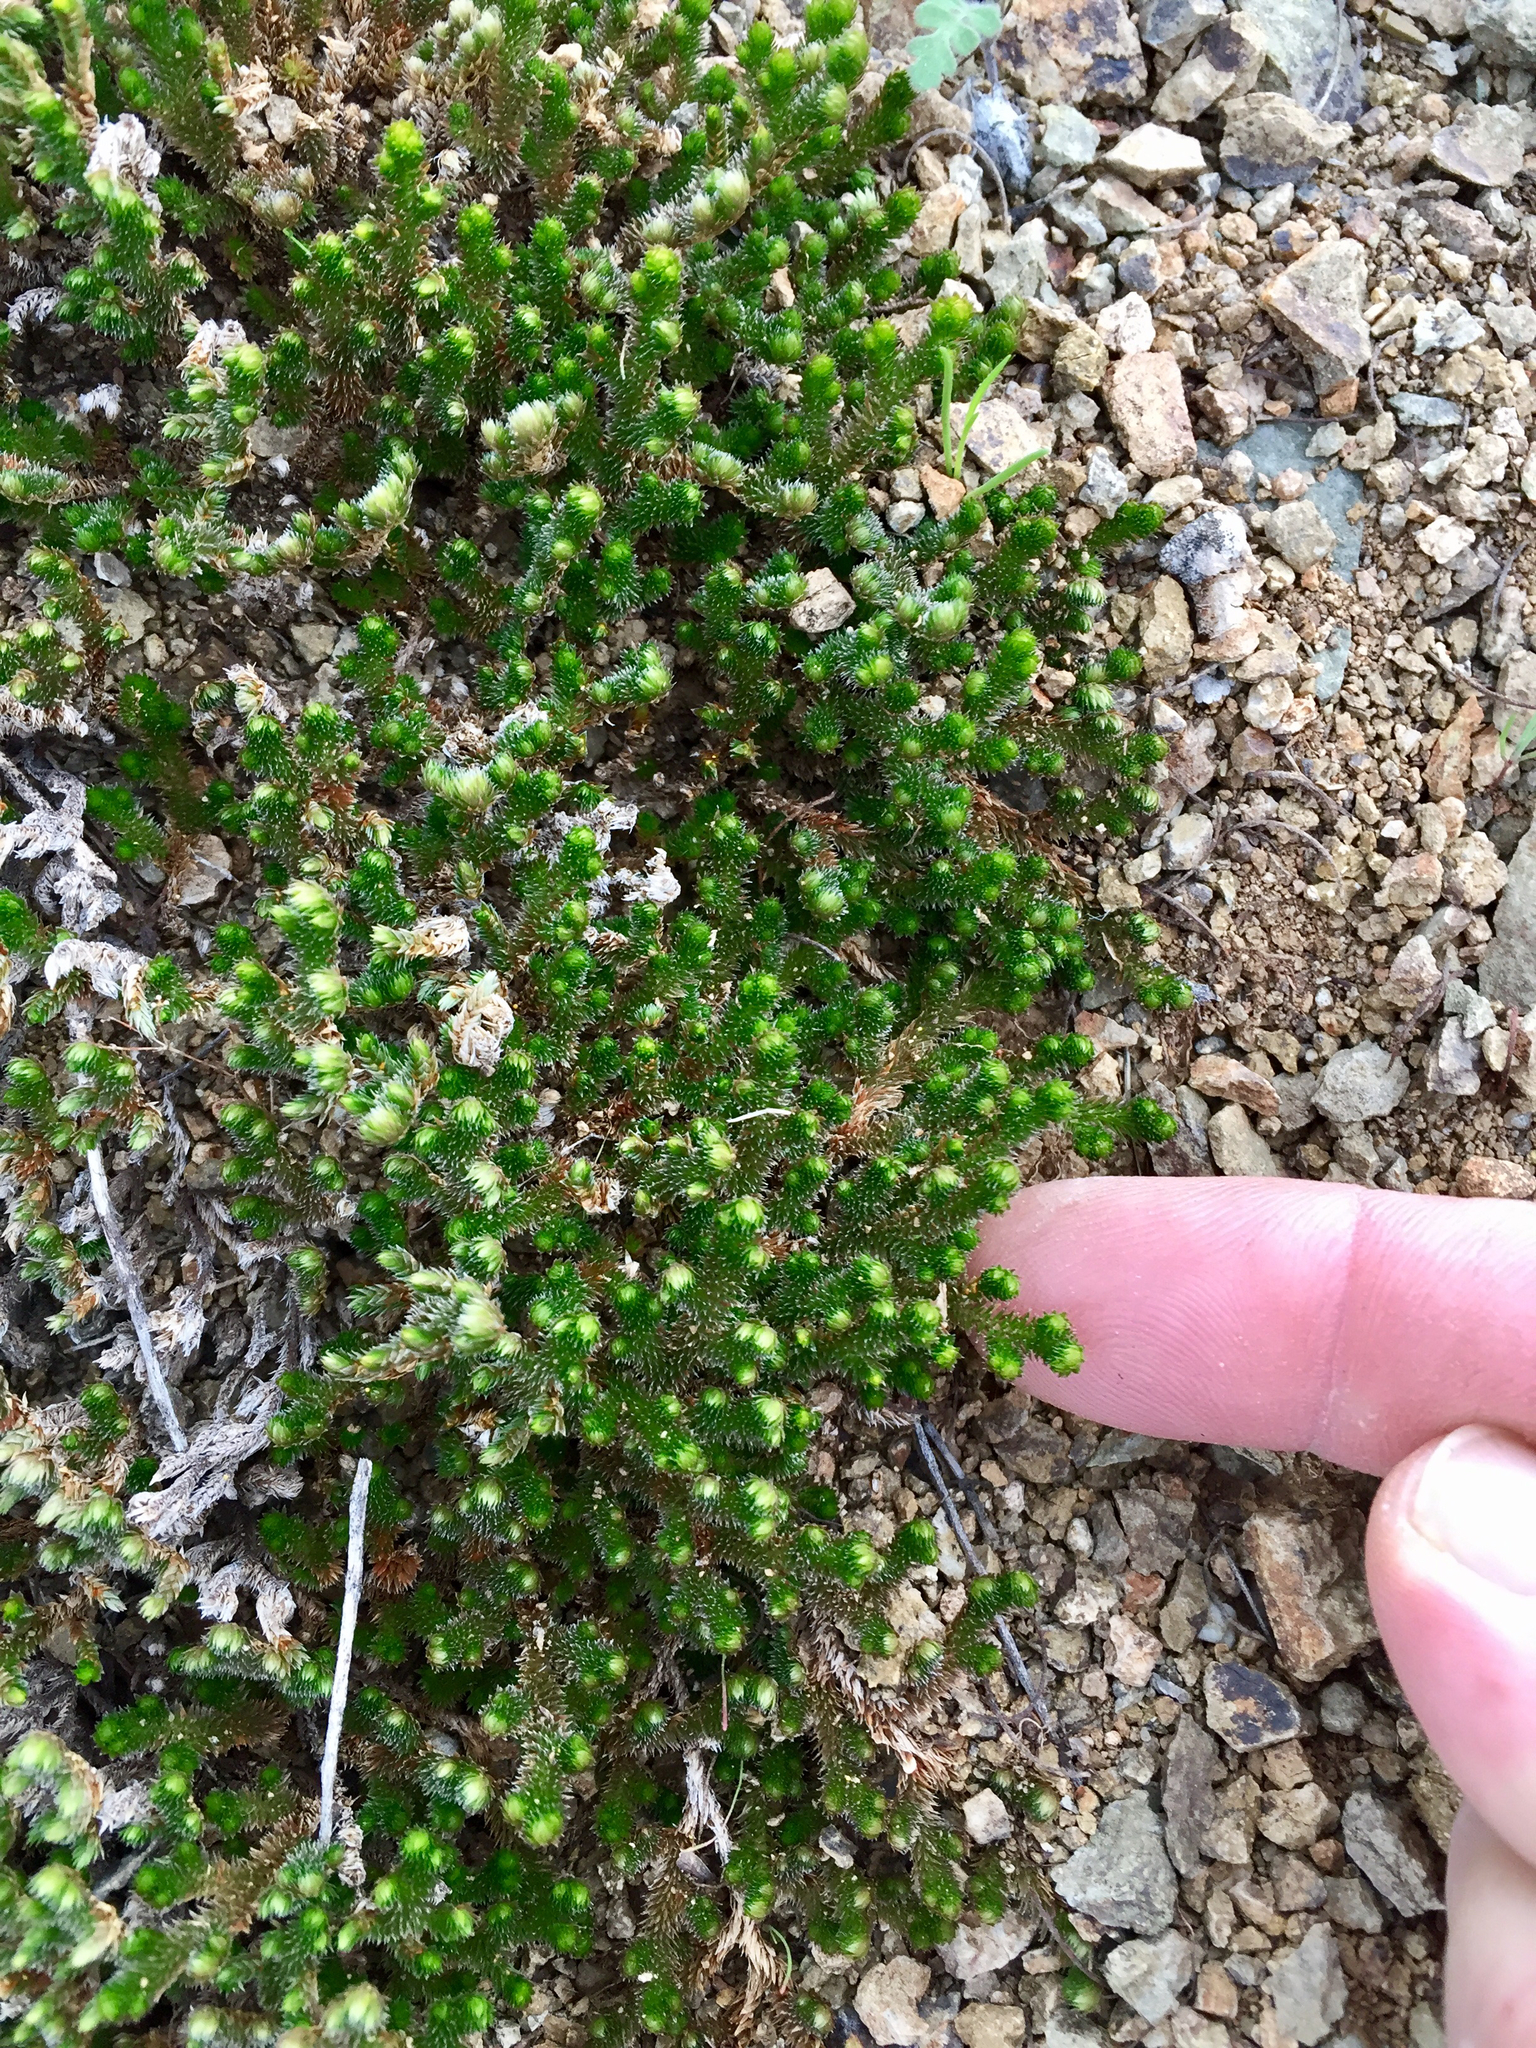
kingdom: Plantae
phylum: Tracheophyta
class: Lycopodiopsida
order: Selaginellales
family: Selaginellaceae
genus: Selaginella
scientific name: Selaginella arizonica
